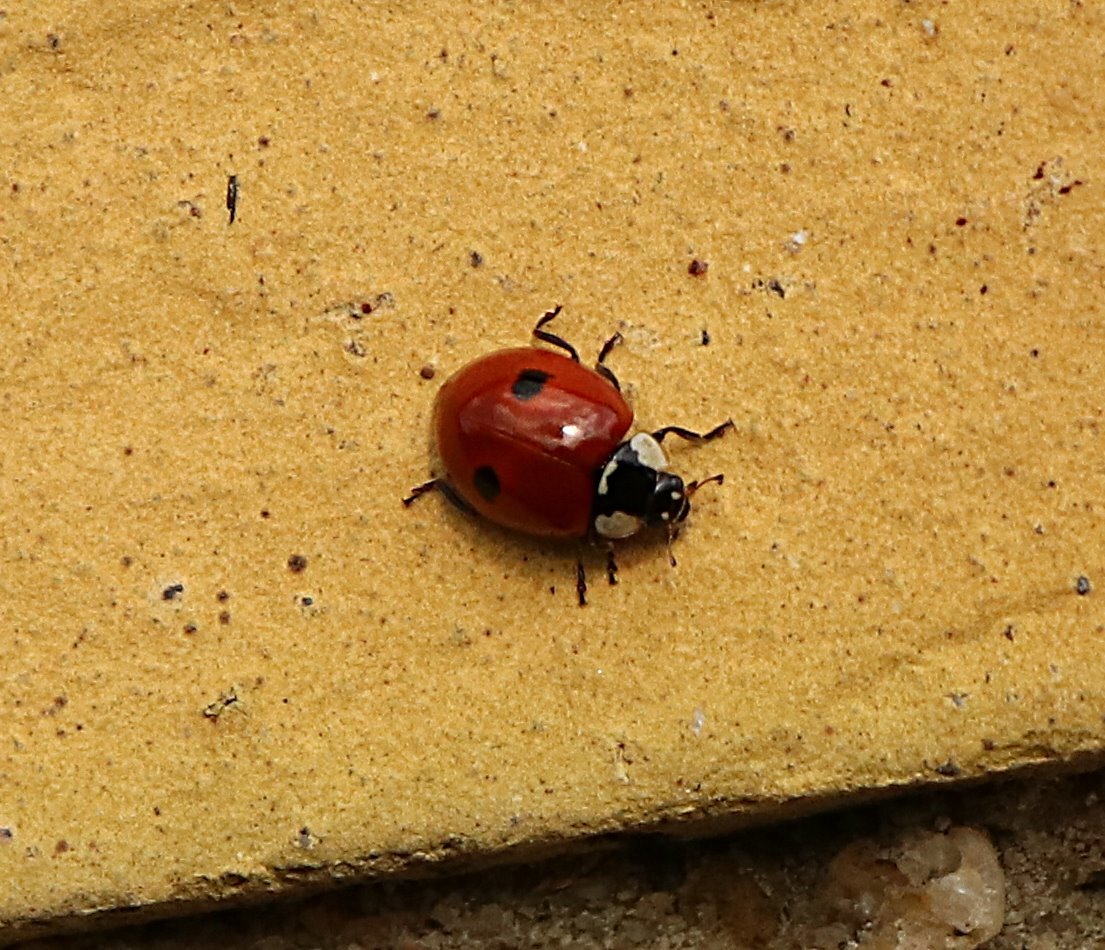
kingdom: Animalia
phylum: Arthropoda
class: Insecta
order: Coleoptera
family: Coccinellidae
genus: Adalia
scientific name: Adalia bipunctata
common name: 2-spot ladybird
